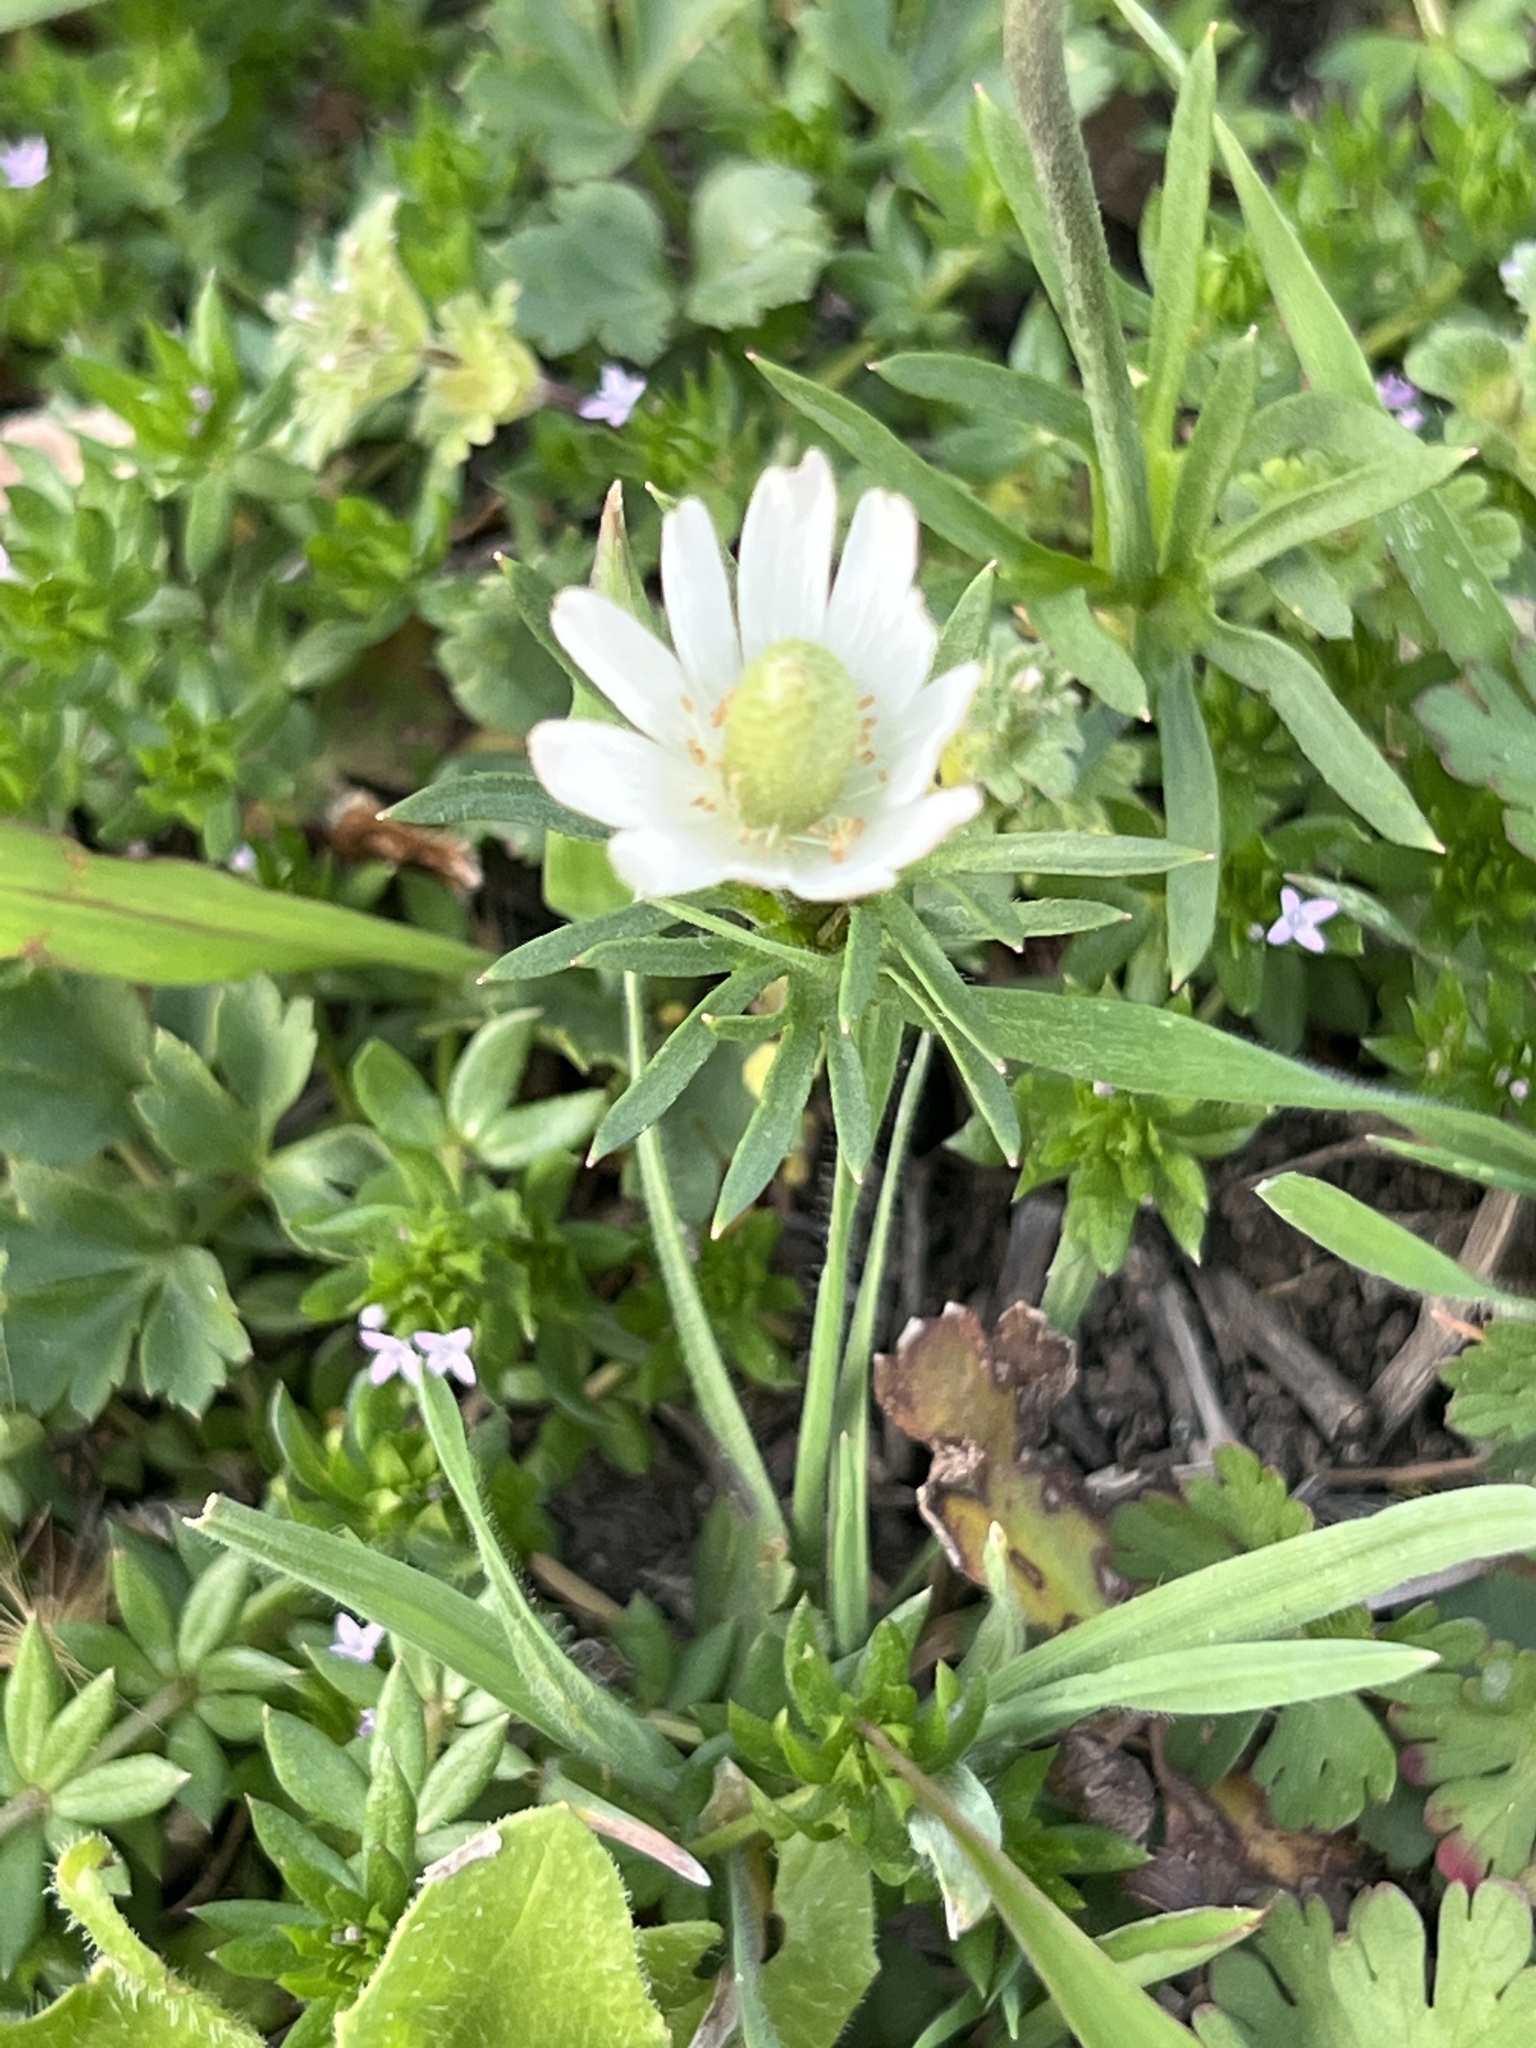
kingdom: Plantae
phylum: Tracheophyta
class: Magnoliopsida
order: Ranunculales
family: Ranunculaceae
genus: Anemone
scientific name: Anemone berlandieri
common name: Ten-petal anemone
